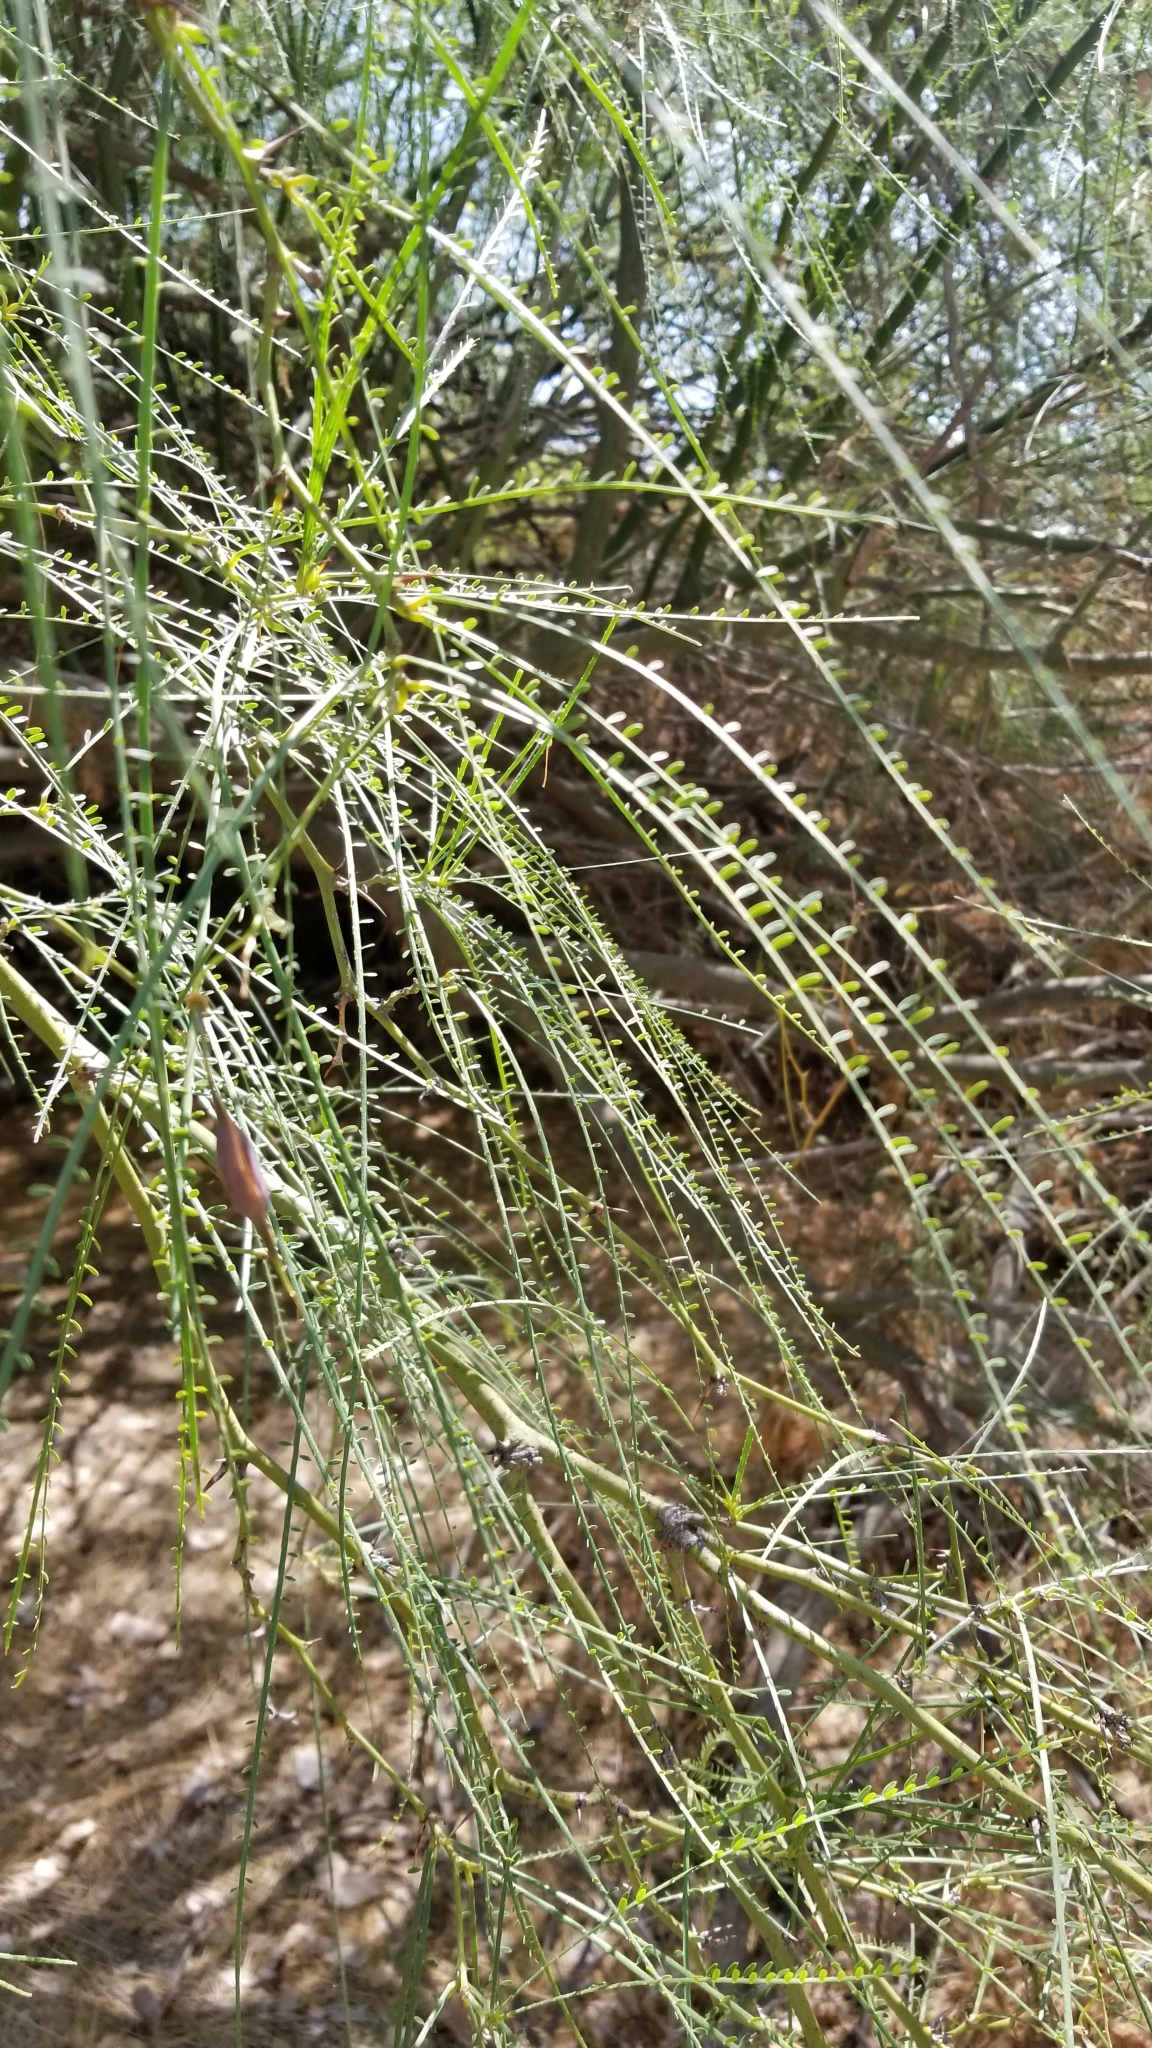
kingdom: Plantae
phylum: Tracheophyta
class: Magnoliopsida
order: Fabales
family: Fabaceae
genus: Parkinsonia
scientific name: Parkinsonia aculeata
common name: Jerusalem thorn
